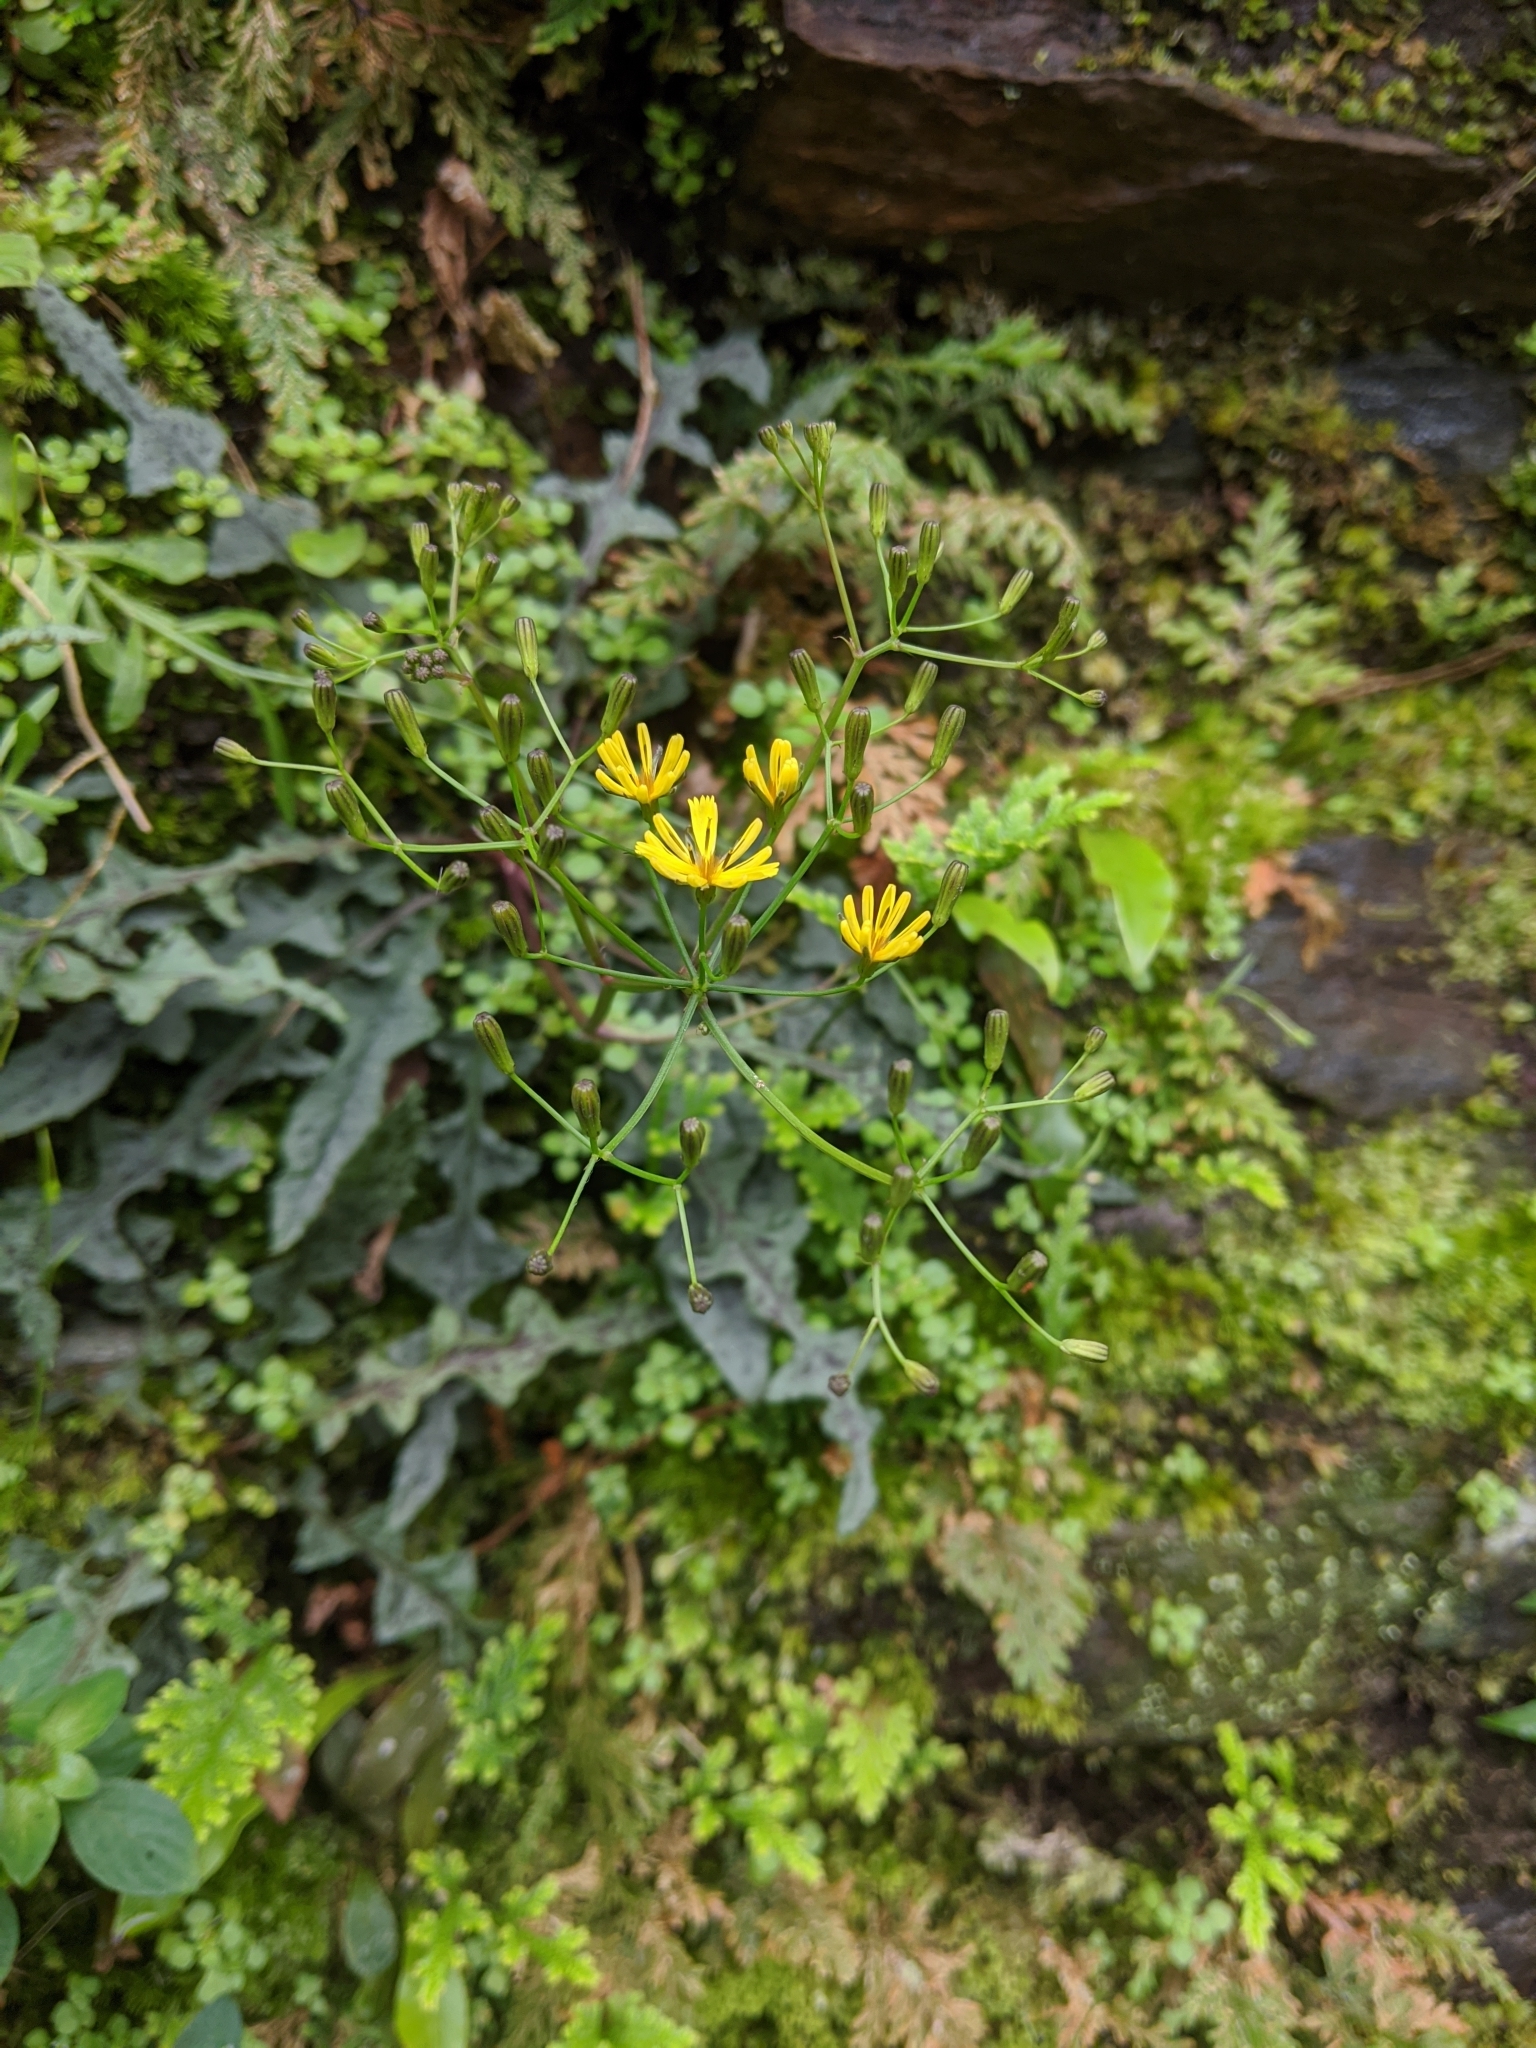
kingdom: Plantae
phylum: Tracheophyta
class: Magnoliopsida
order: Asterales
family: Asteraceae
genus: Ixeridium
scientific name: Ixeridium laevigatum
